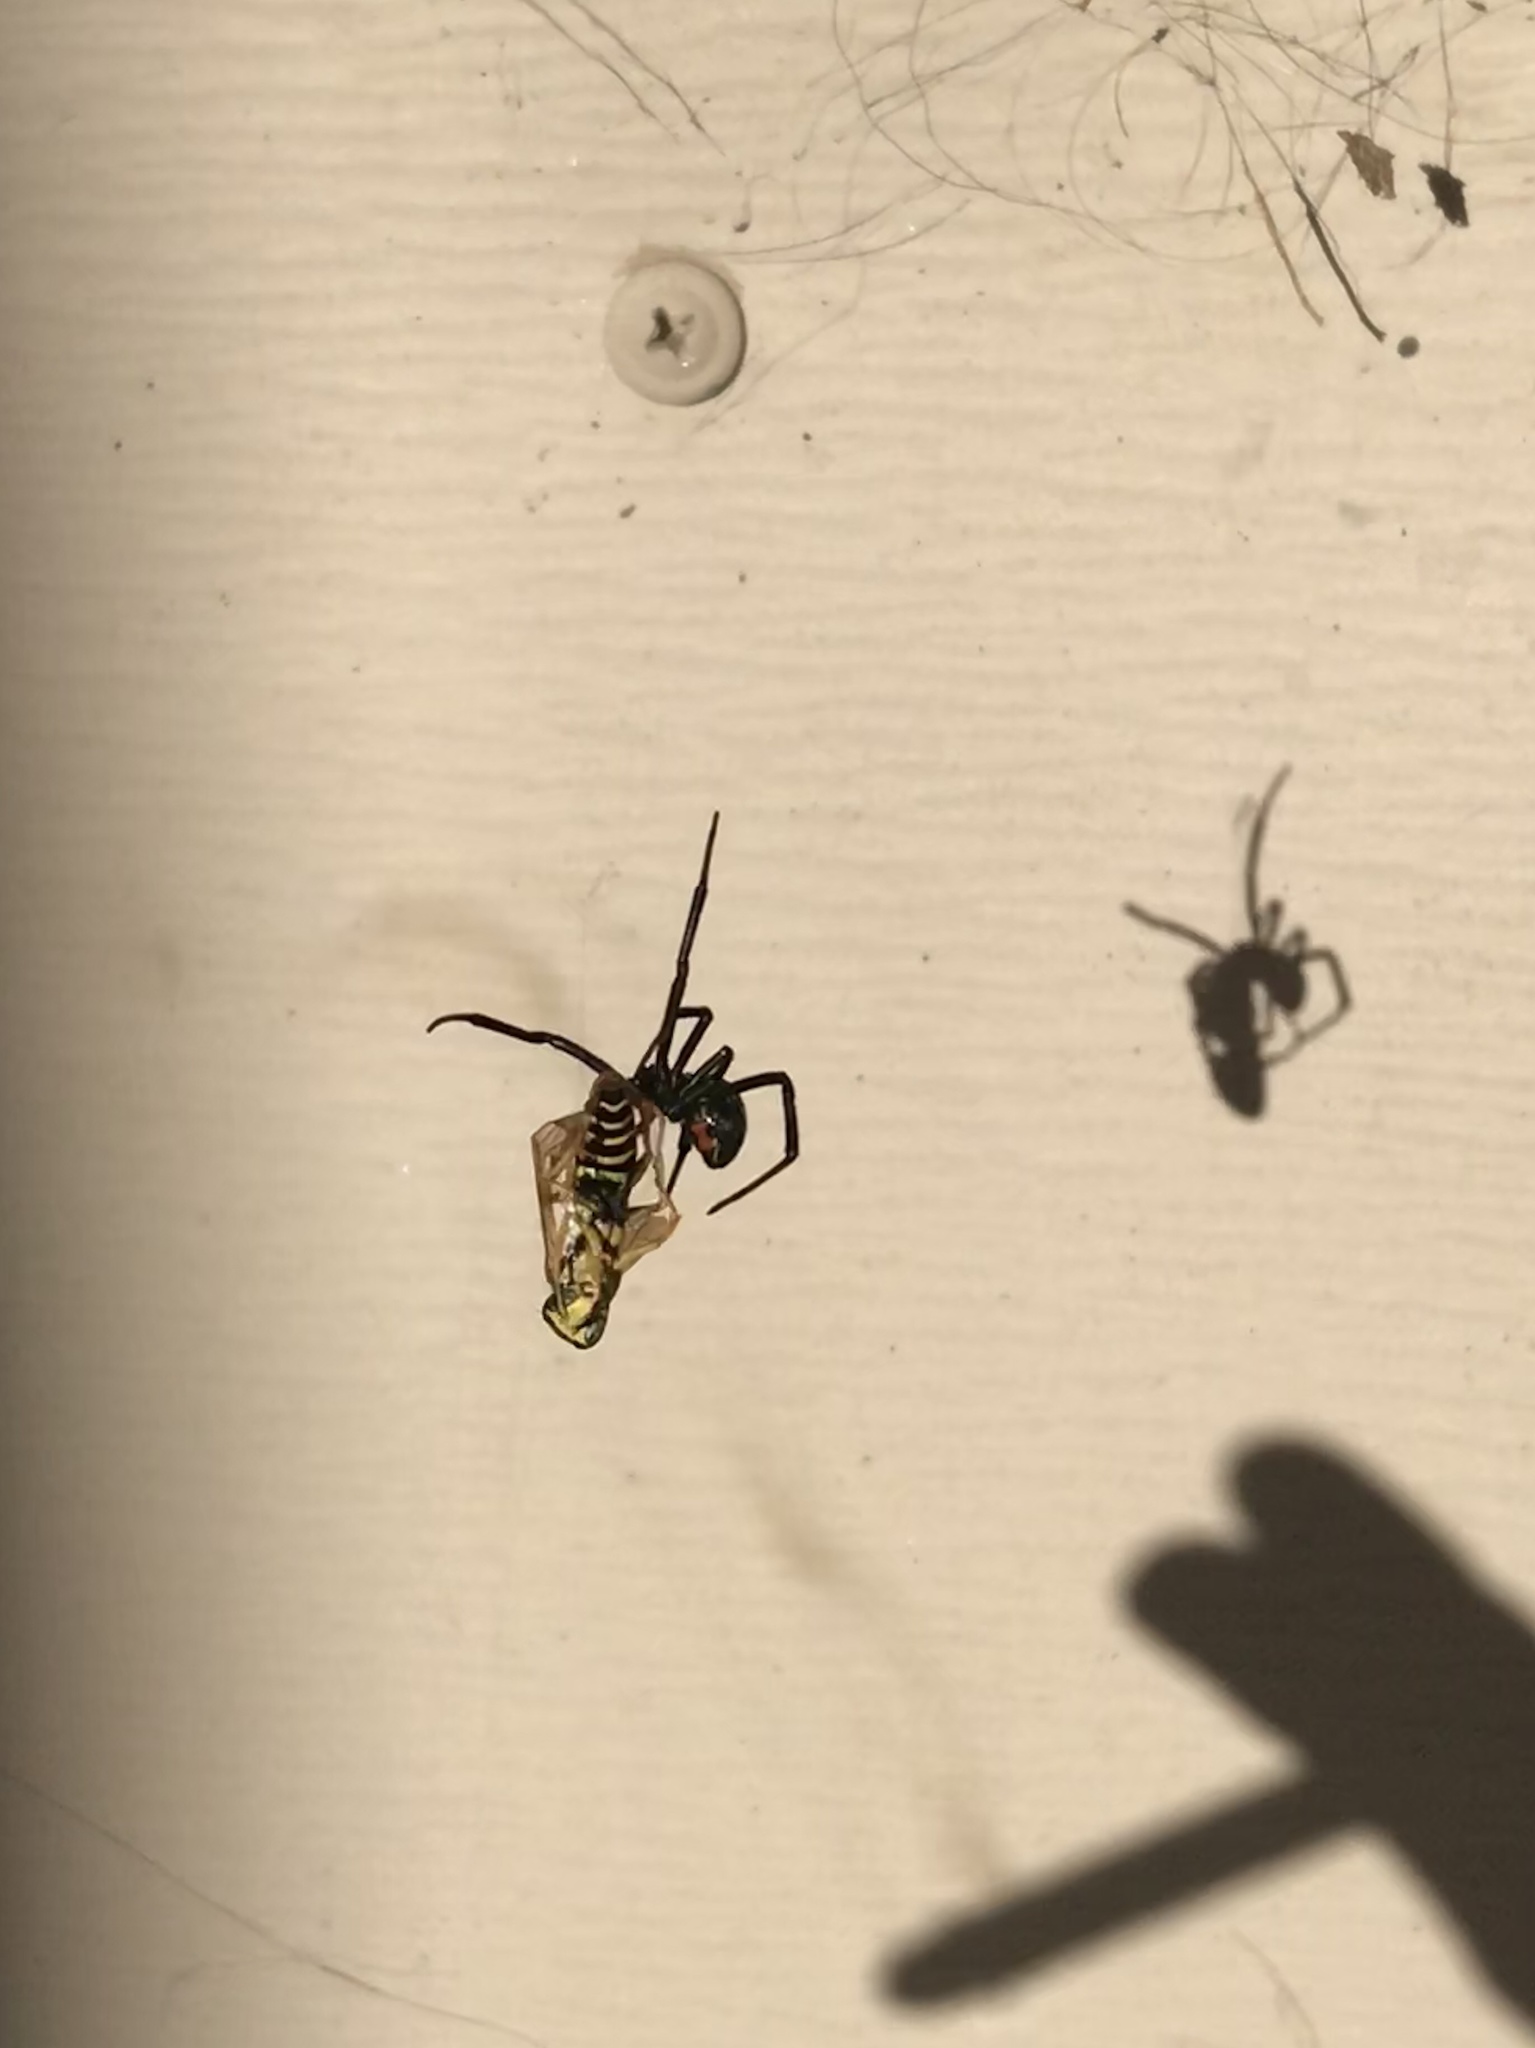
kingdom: Animalia
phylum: Arthropoda
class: Arachnida
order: Araneae
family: Theridiidae
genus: Latrodectus
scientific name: Latrodectus hesperus
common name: Western black widow
